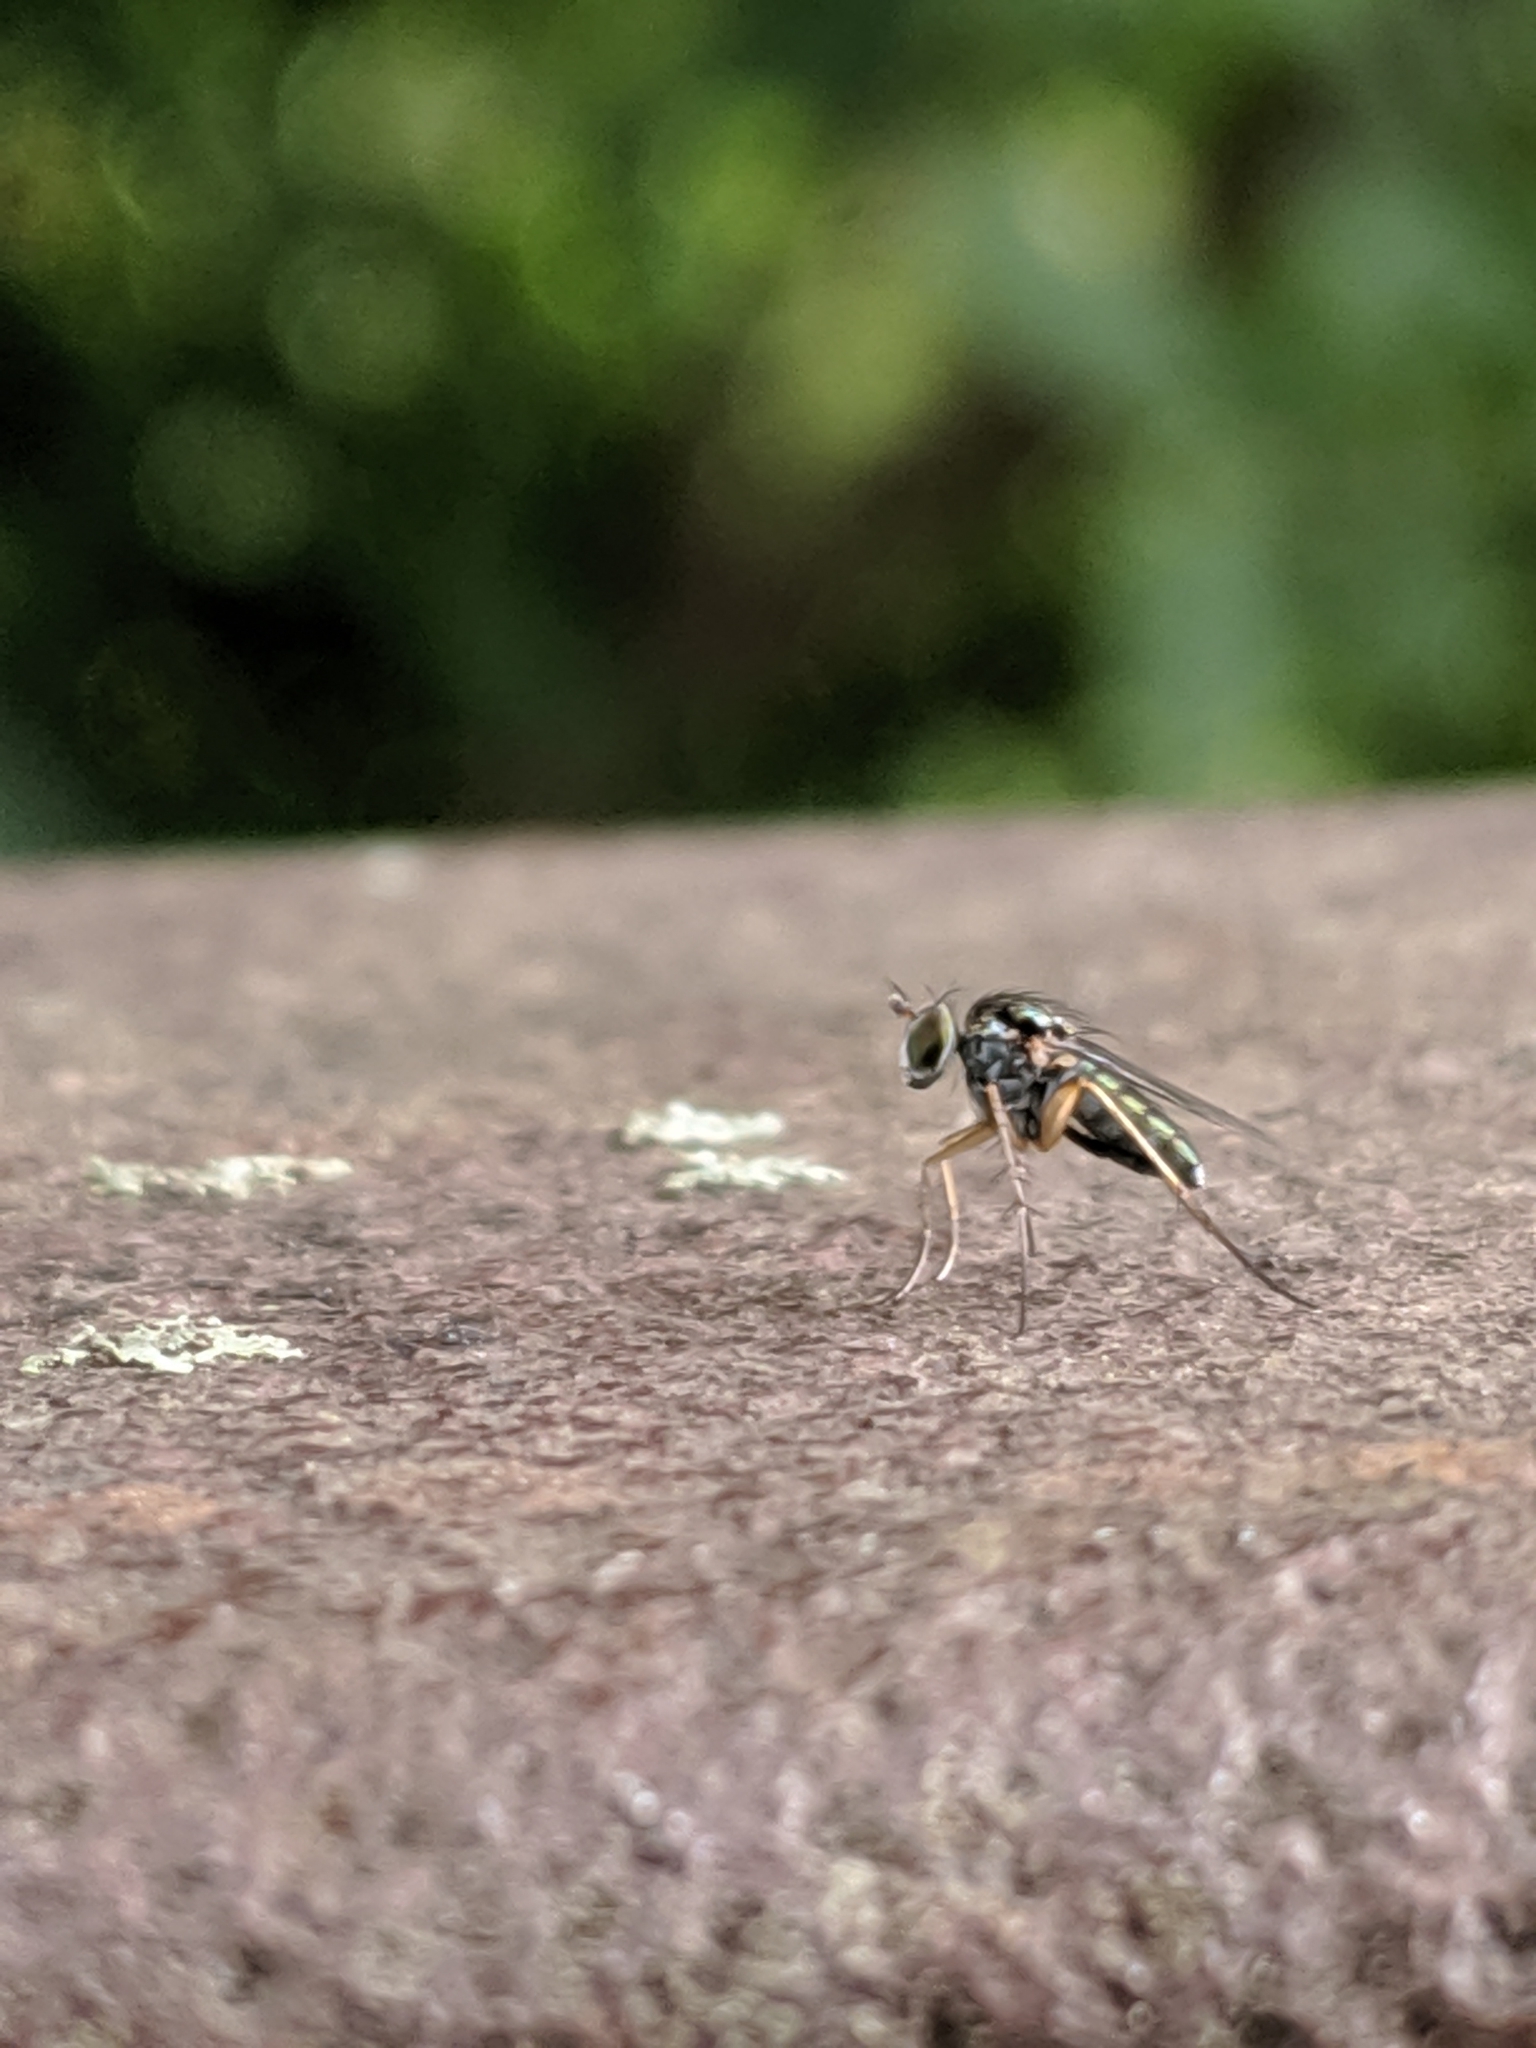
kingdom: Animalia
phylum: Arthropoda
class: Insecta
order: Diptera
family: Dolichopodidae
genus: Pelastoneurus
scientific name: Pelastoneurus vagans
